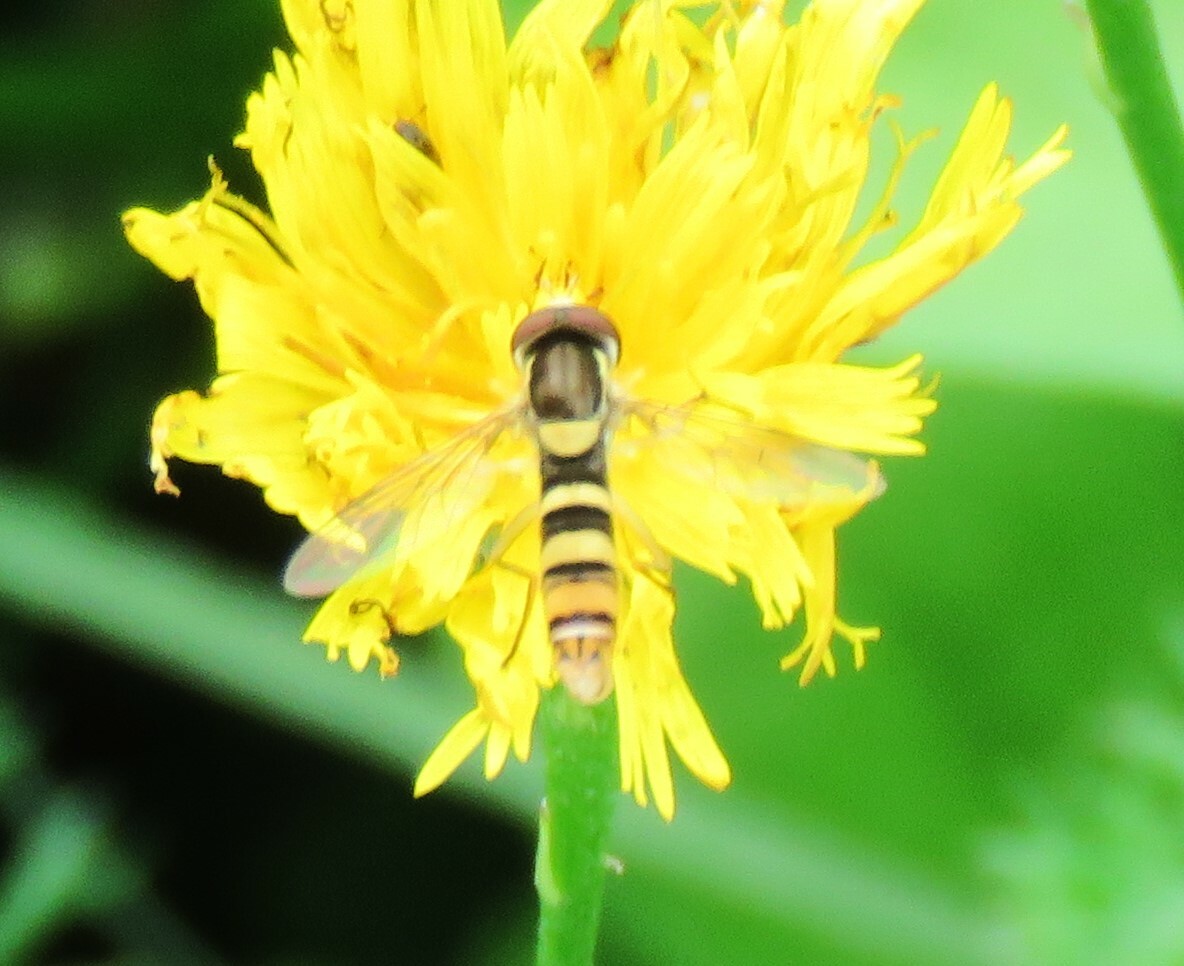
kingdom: Animalia
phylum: Arthropoda
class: Insecta
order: Diptera
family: Syrphidae
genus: Sphaerophoria
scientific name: Sphaerophoria
